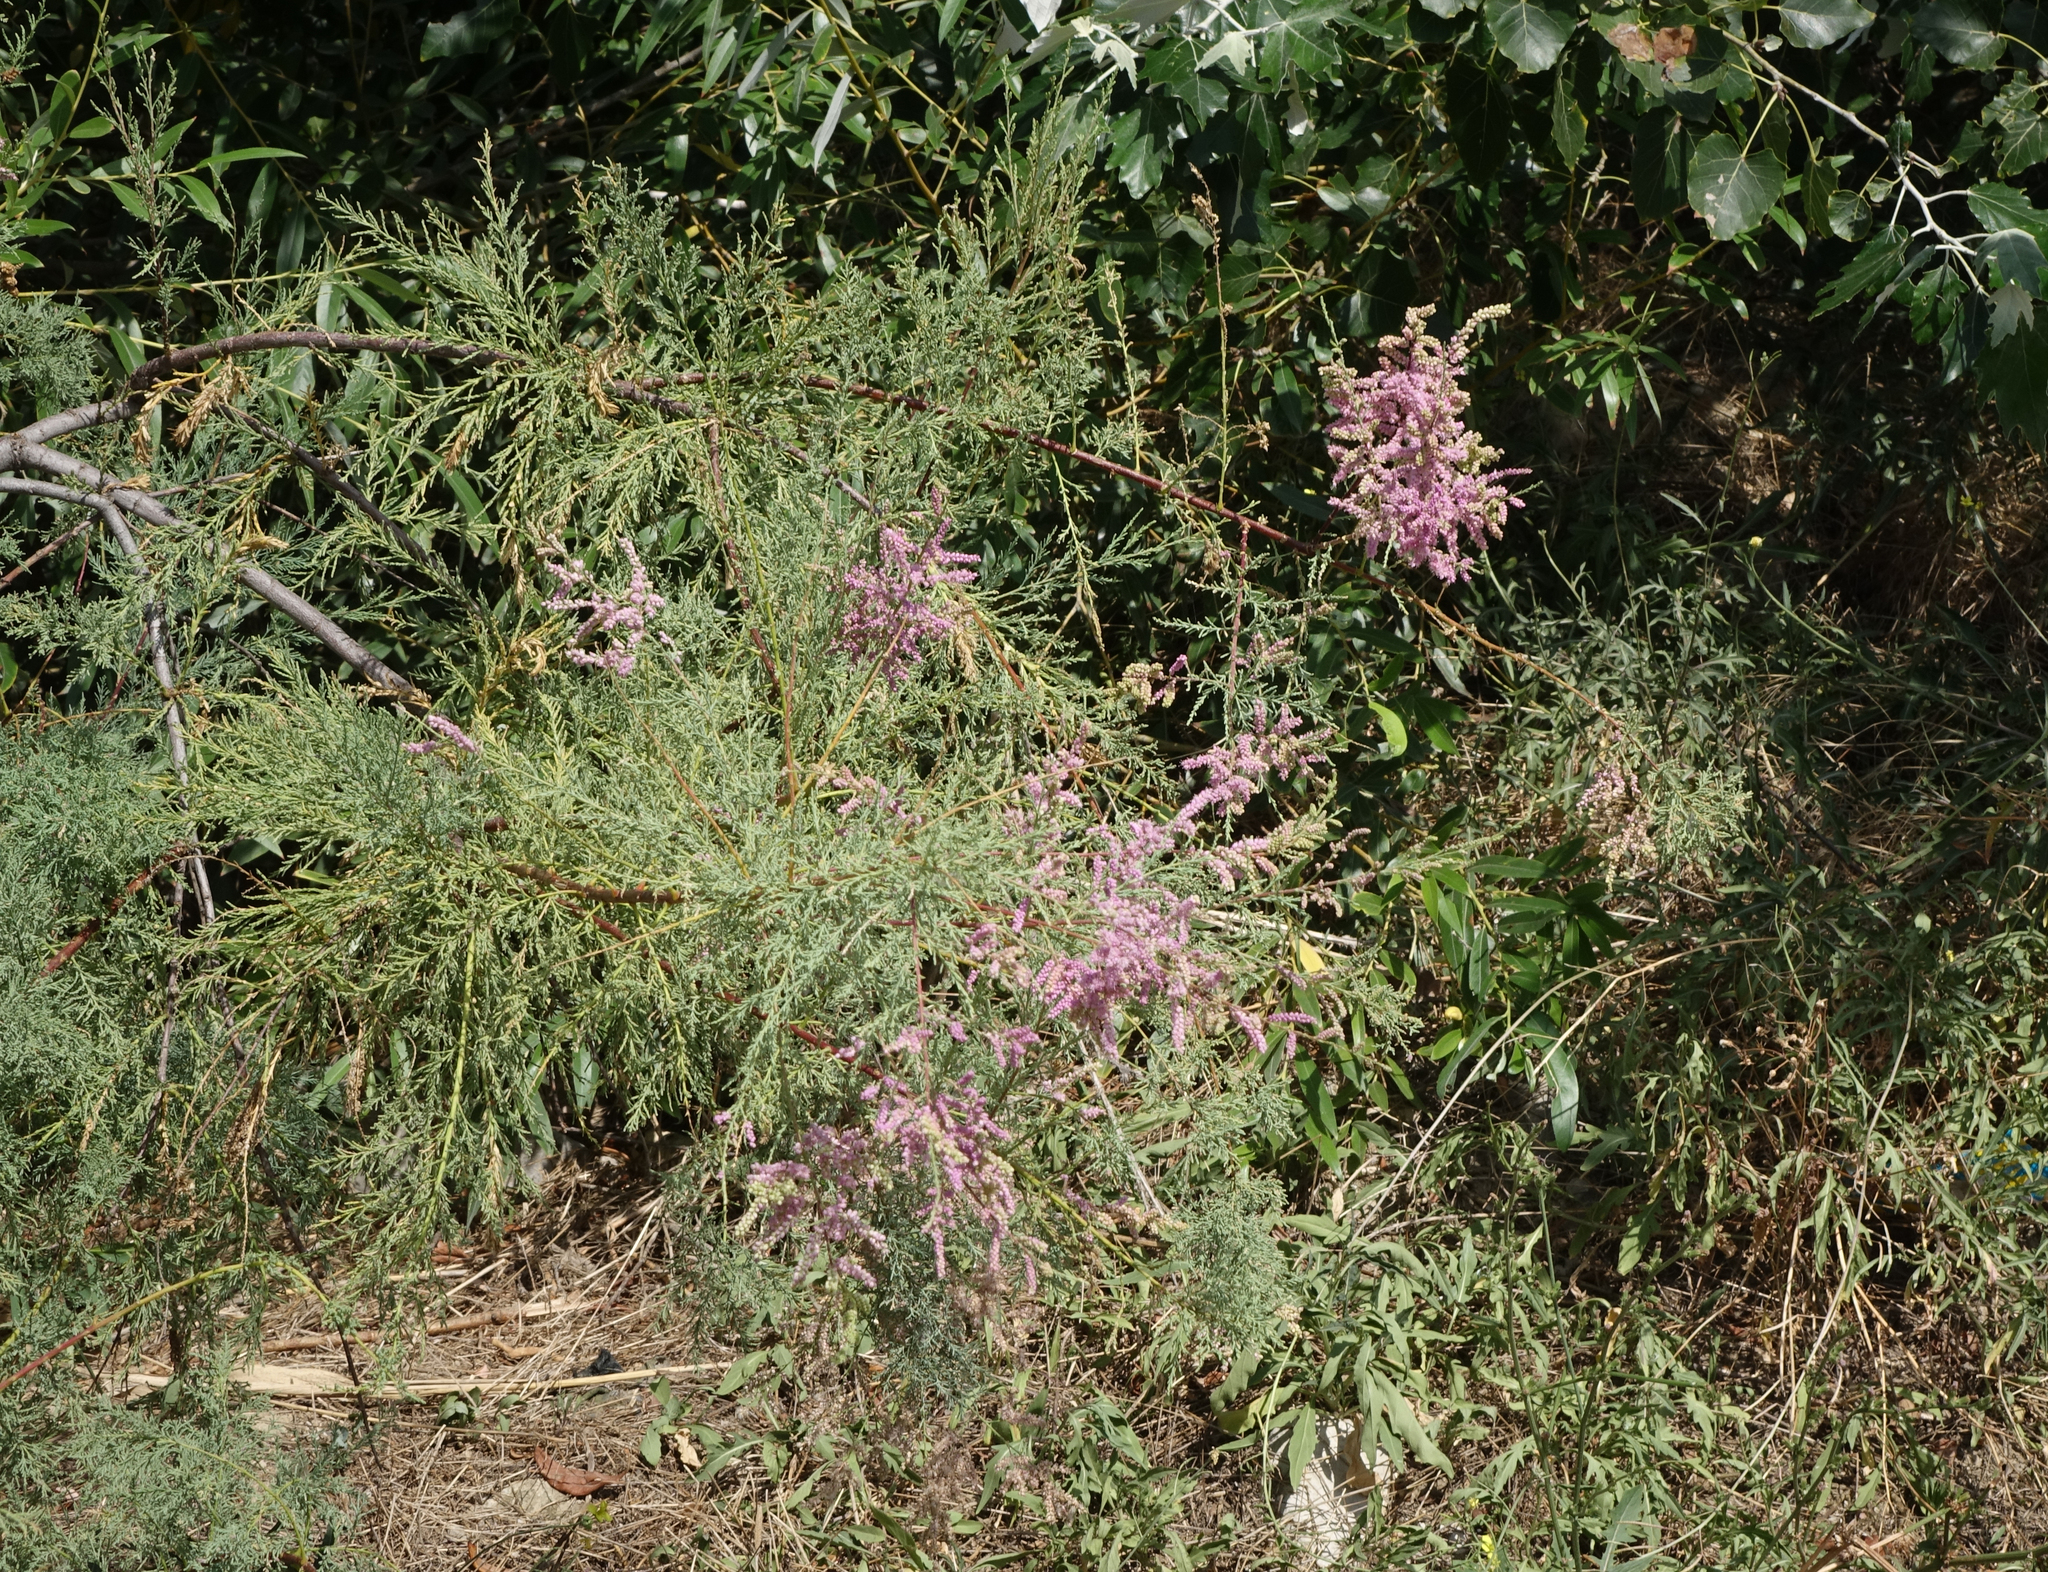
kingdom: Plantae
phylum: Tracheophyta
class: Magnoliopsida
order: Caryophyllales
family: Tamaricaceae
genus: Tamarix
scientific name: Tamarix ramosissima
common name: Pink tamarisk
